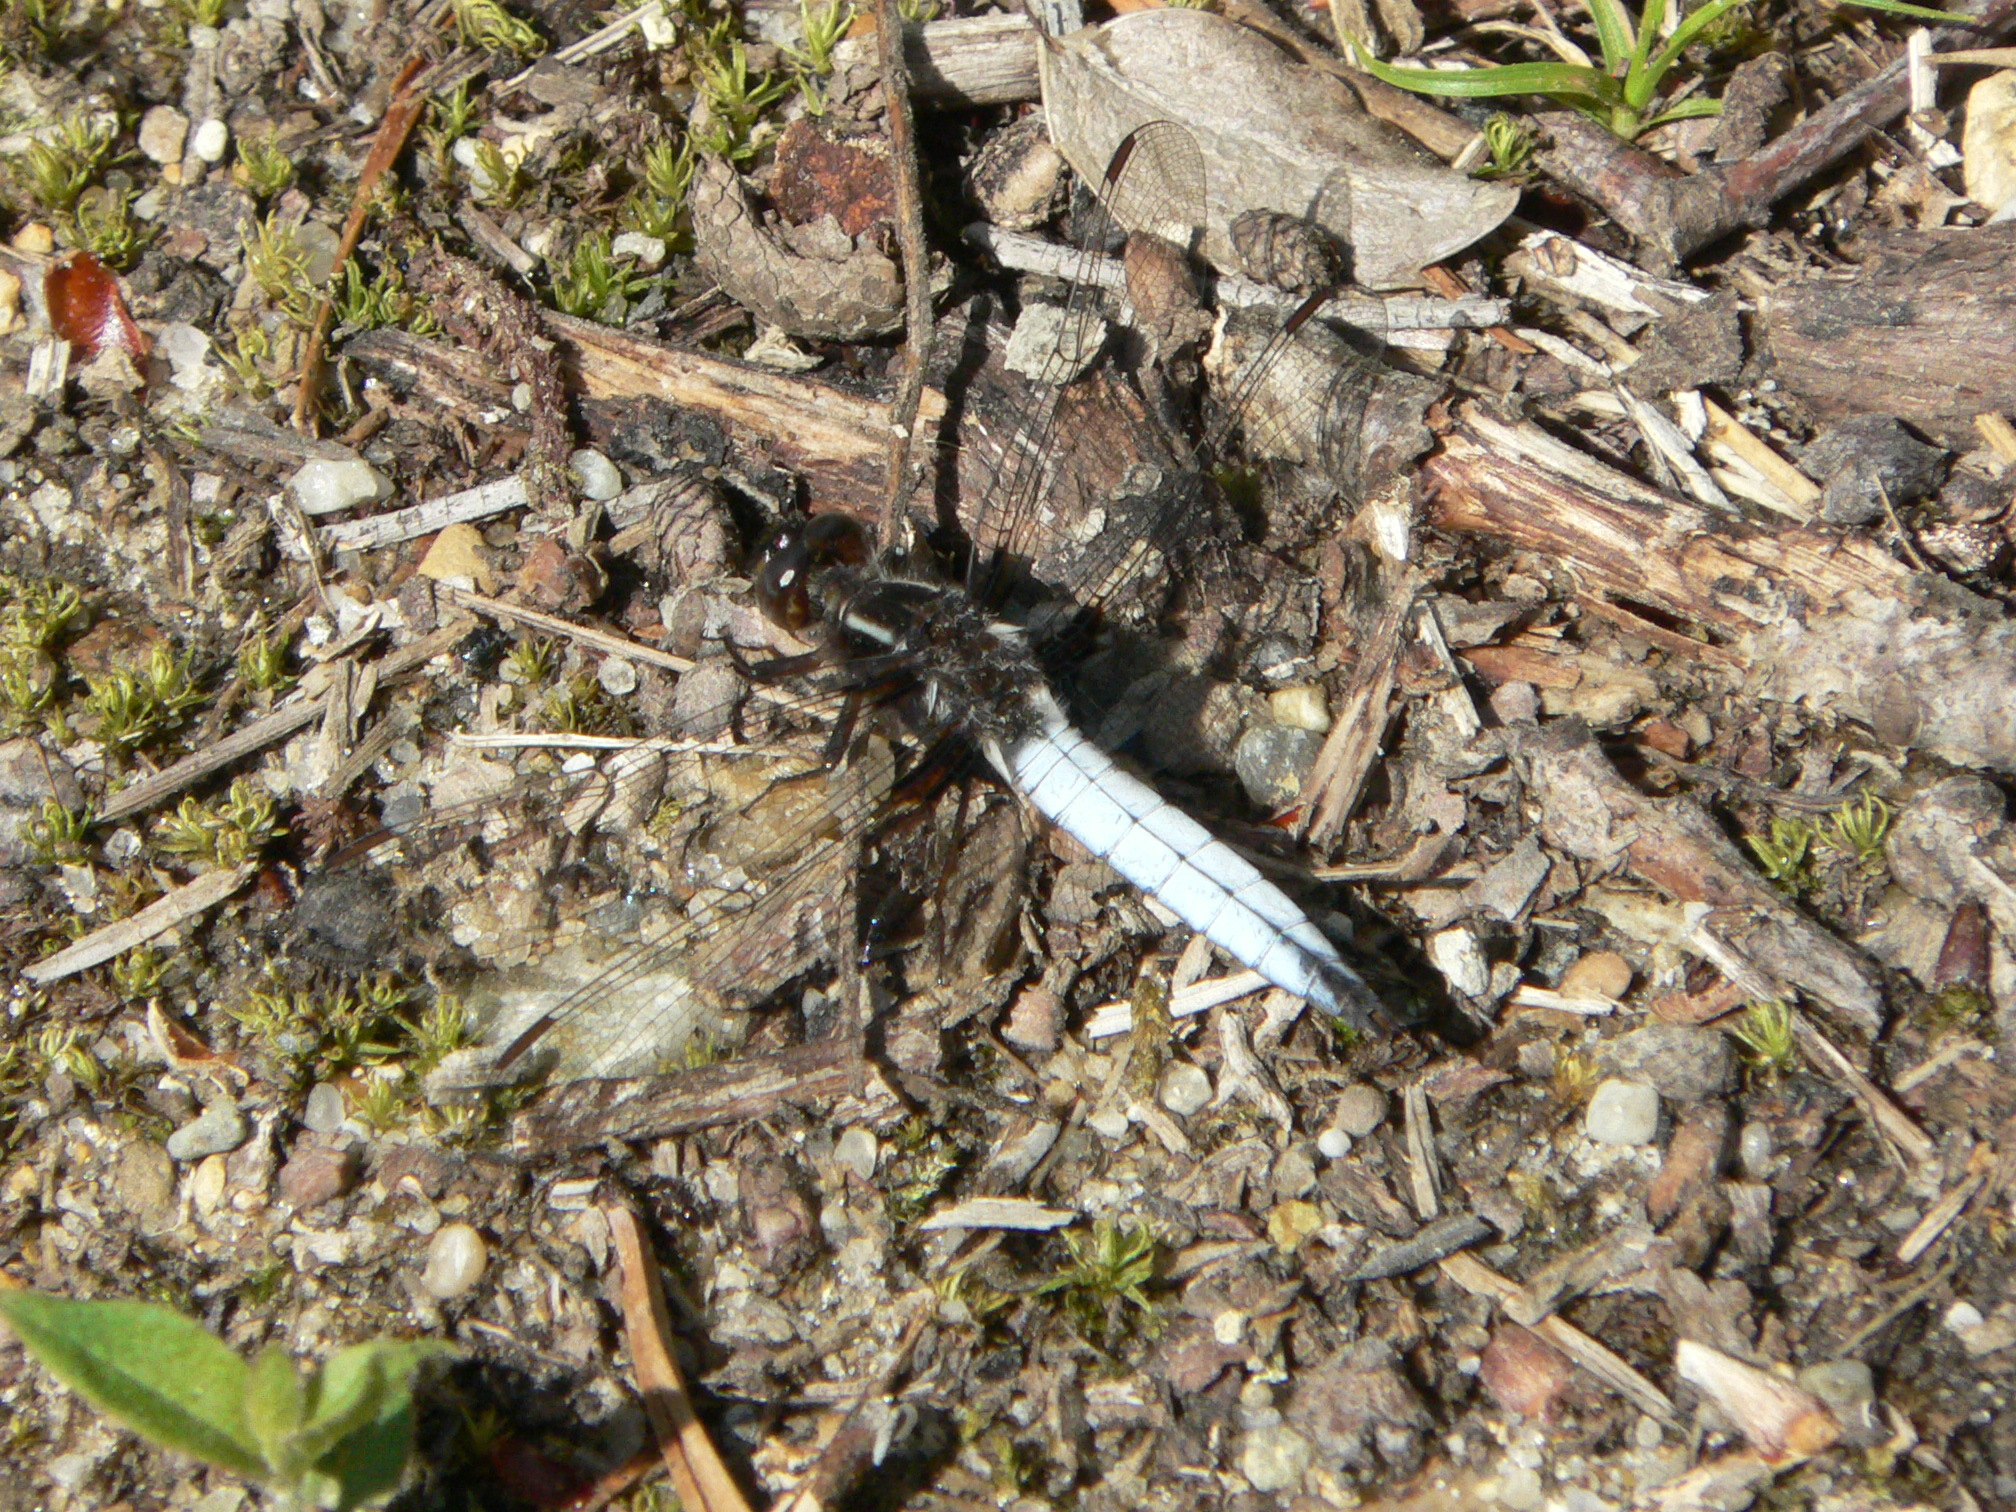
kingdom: Animalia
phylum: Arthropoda
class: Insecta
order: Odonata
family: Libellulidae
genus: Ladona
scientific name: Ladona exusta
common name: Libellule embrasée
